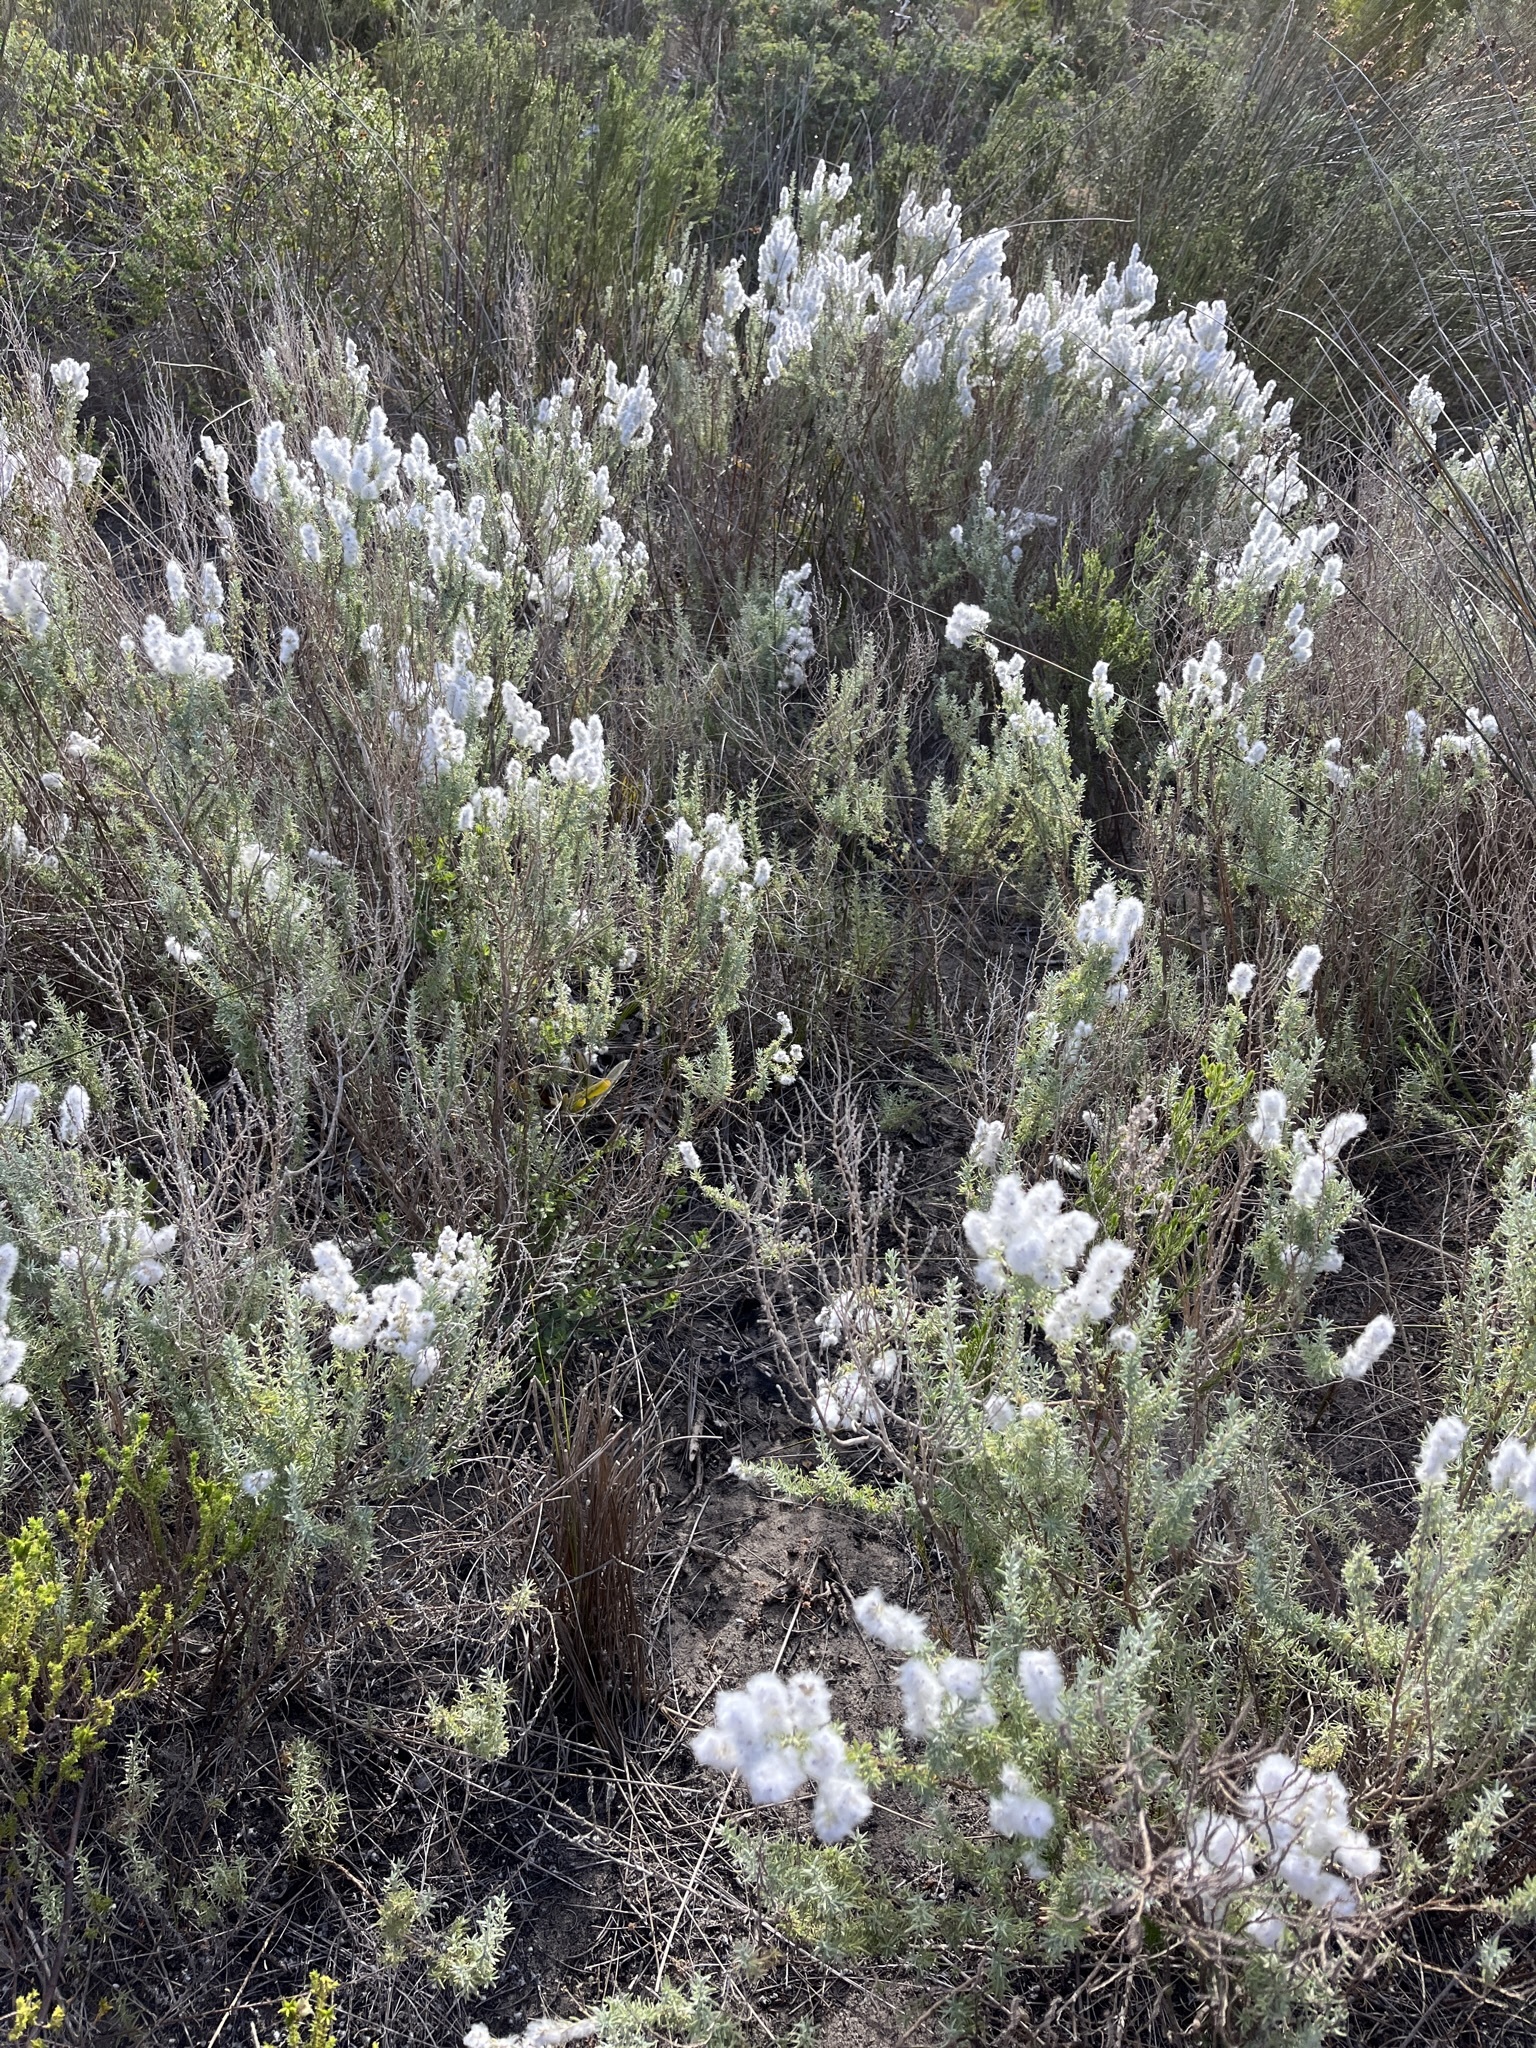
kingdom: Plantae
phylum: Tracheophyta
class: Magnoliopsida
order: Asterales
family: Asteraceae
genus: Eriocephalus
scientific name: Eriocephalus racemosus
